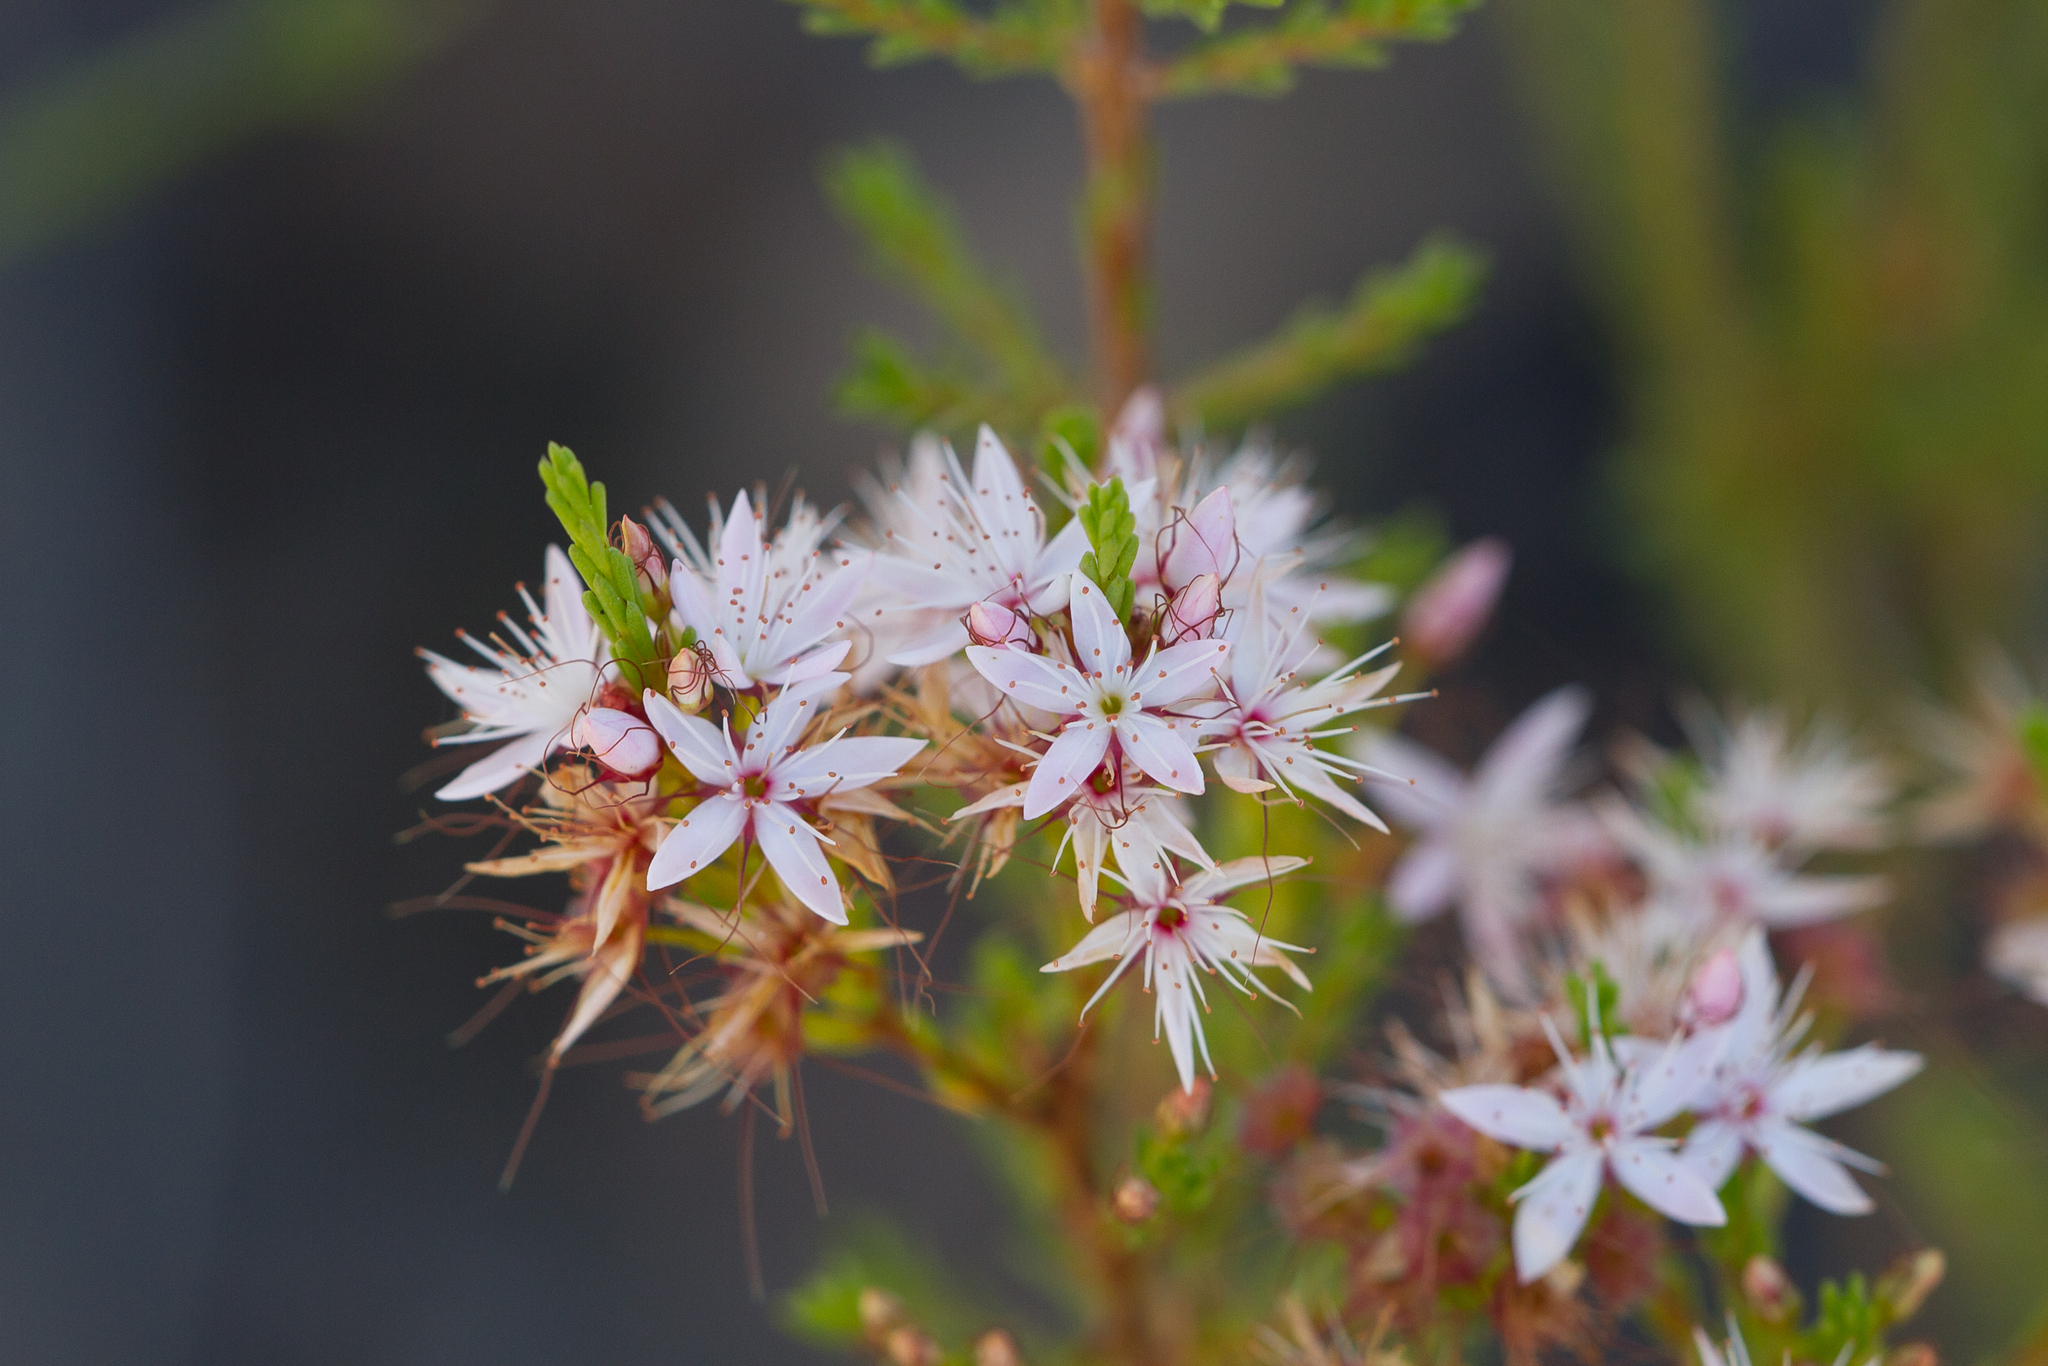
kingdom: Plantae
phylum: Tracheophyta
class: Magnoliopsida
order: Myrtales
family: Myrtaceae
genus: Calytrix
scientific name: Calytrix tetragona
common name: Common fringe myrtle
